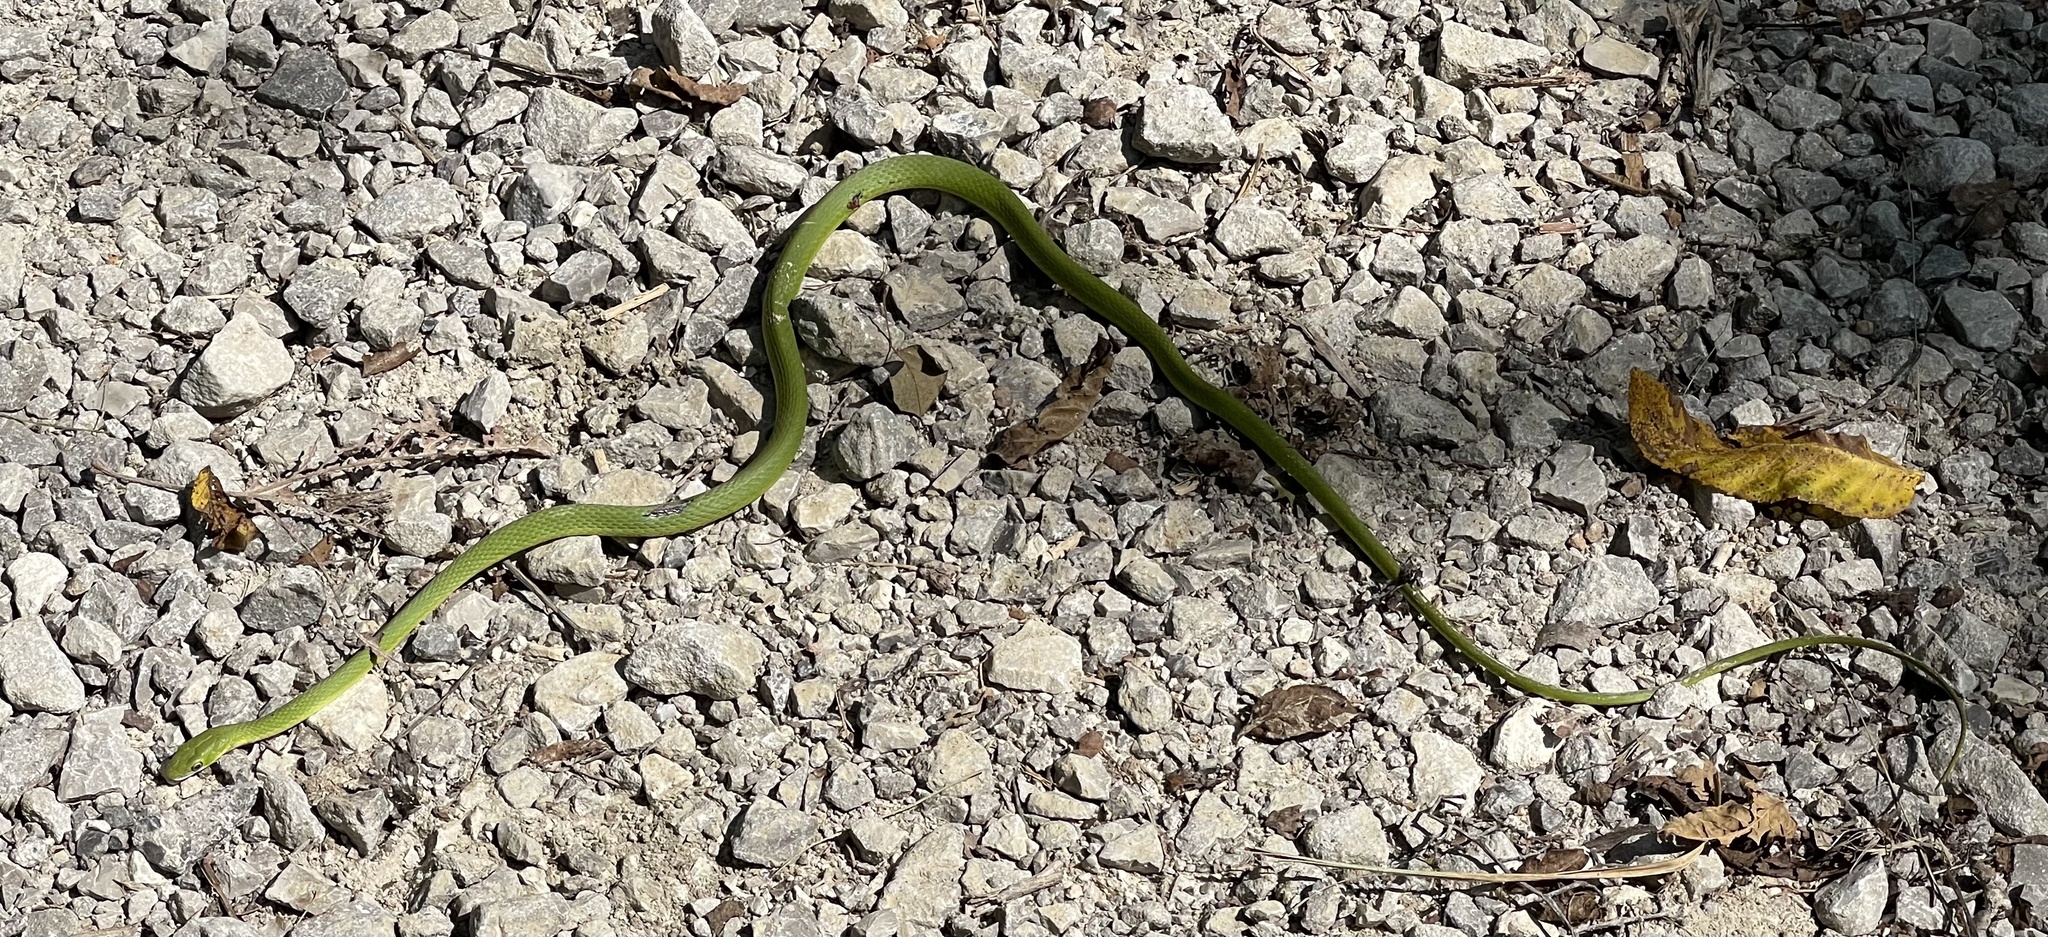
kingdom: Animalia
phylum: Chordata
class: Squamata
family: Colubridae
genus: Opheodrys
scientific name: Opheodrys aestivus
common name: Rough greensnake
